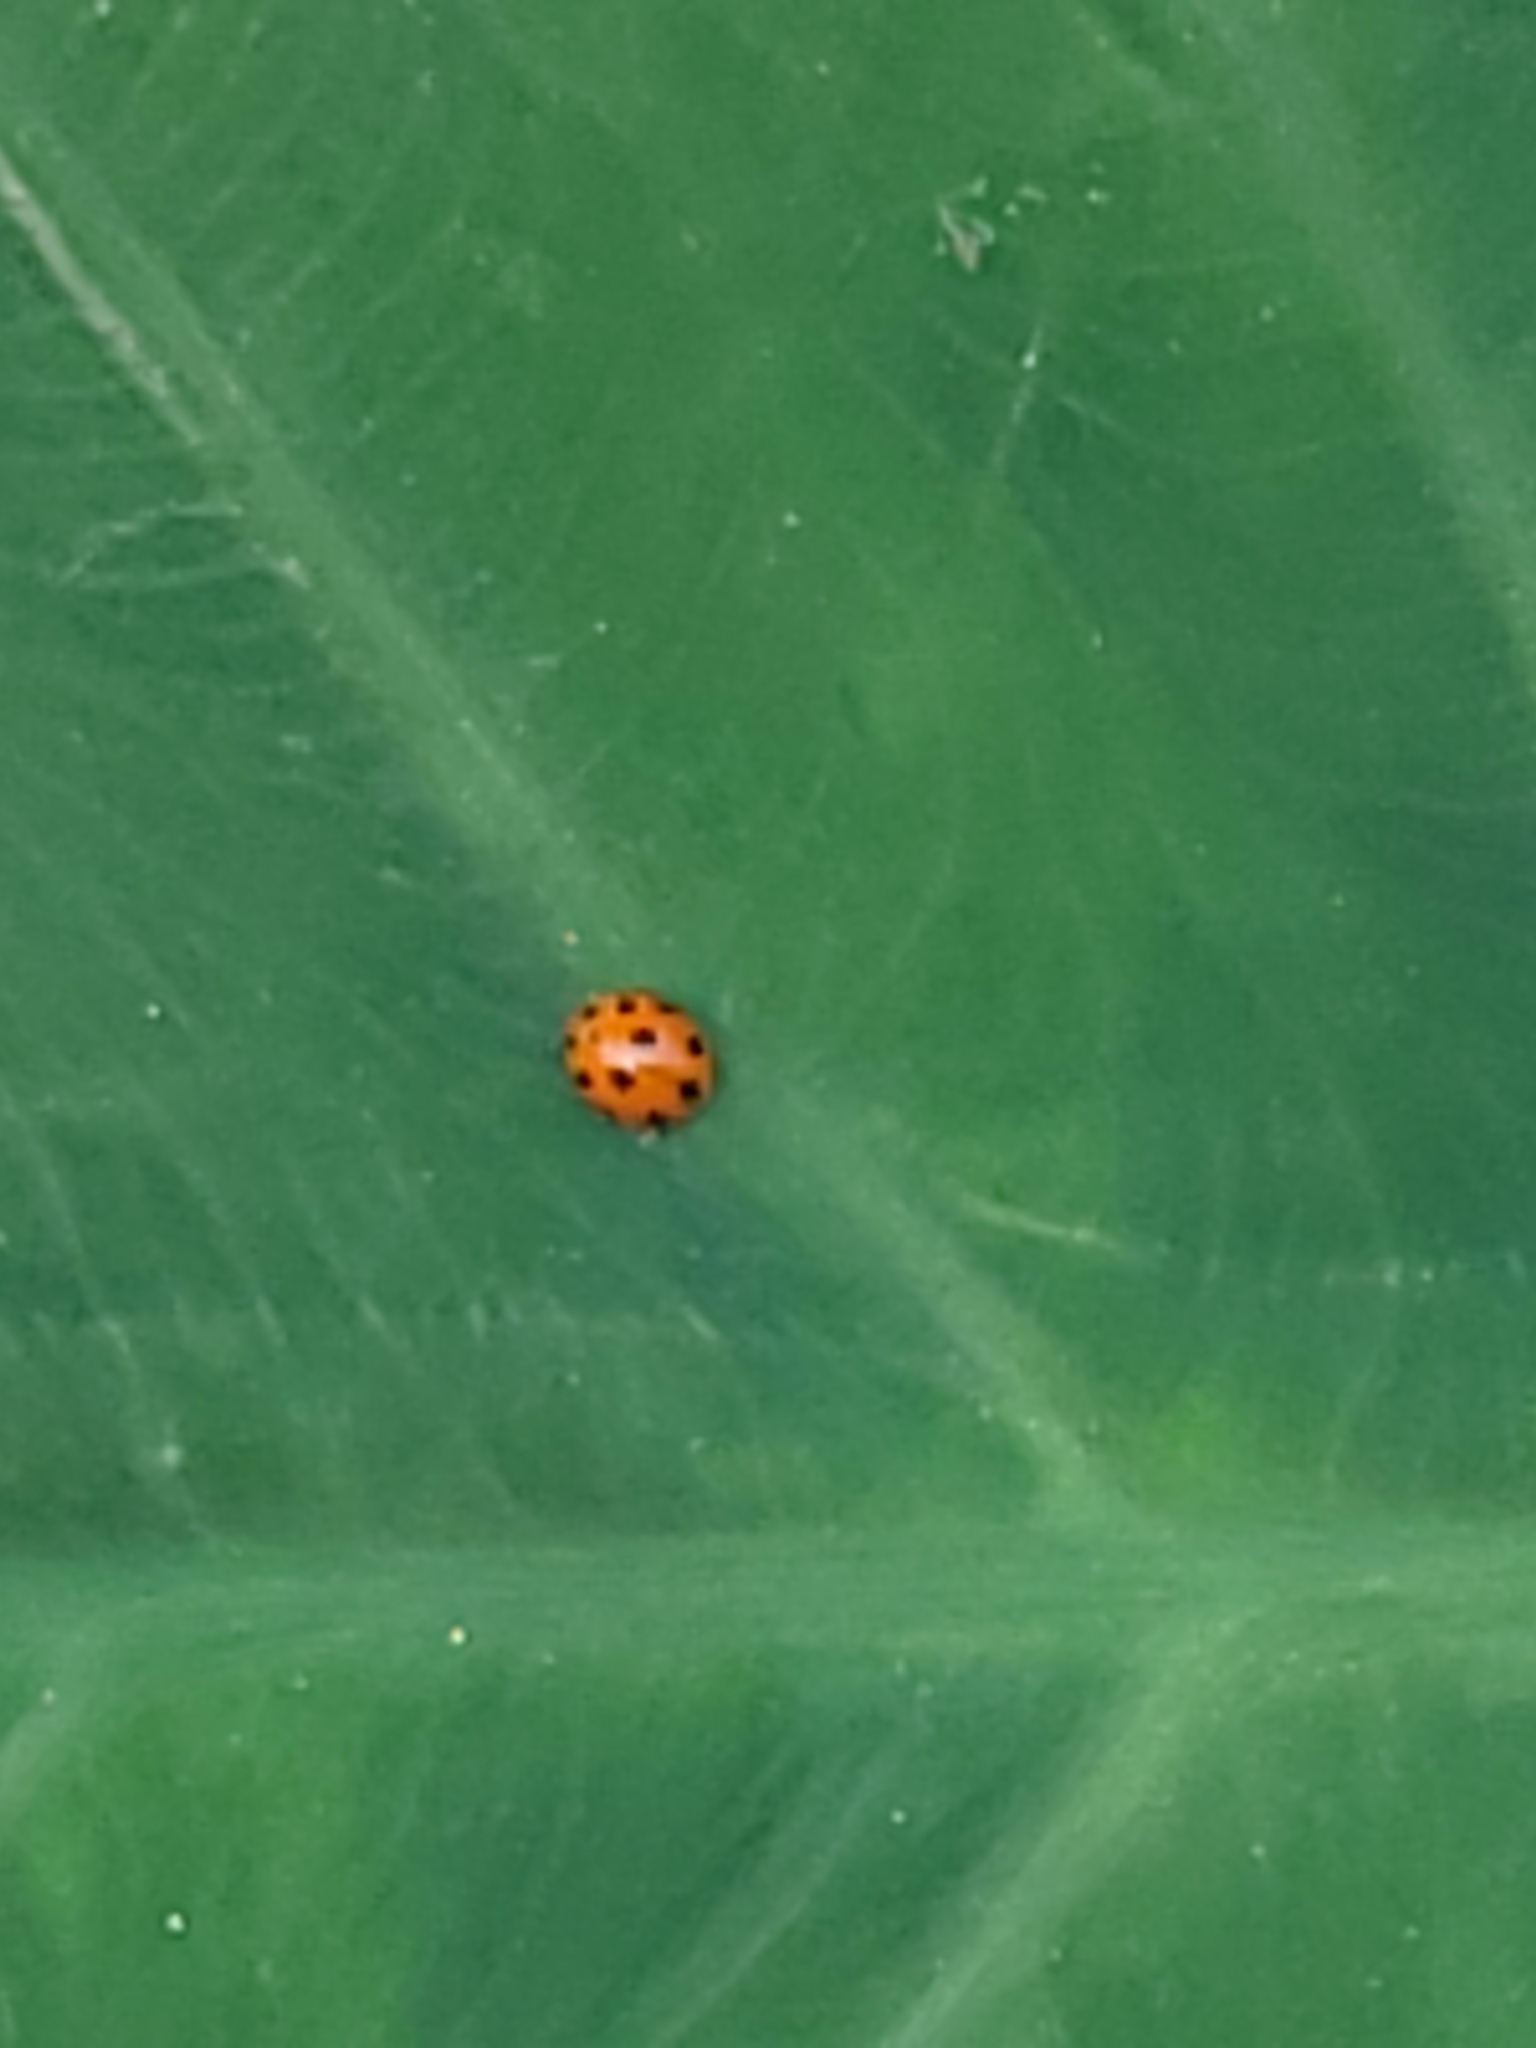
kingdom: Animalia
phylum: Arthropoda
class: Insecta
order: Coleoptera
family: Coccinellidae
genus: Coelophora
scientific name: Coelophora inaequalis
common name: Common australian lady beetle
